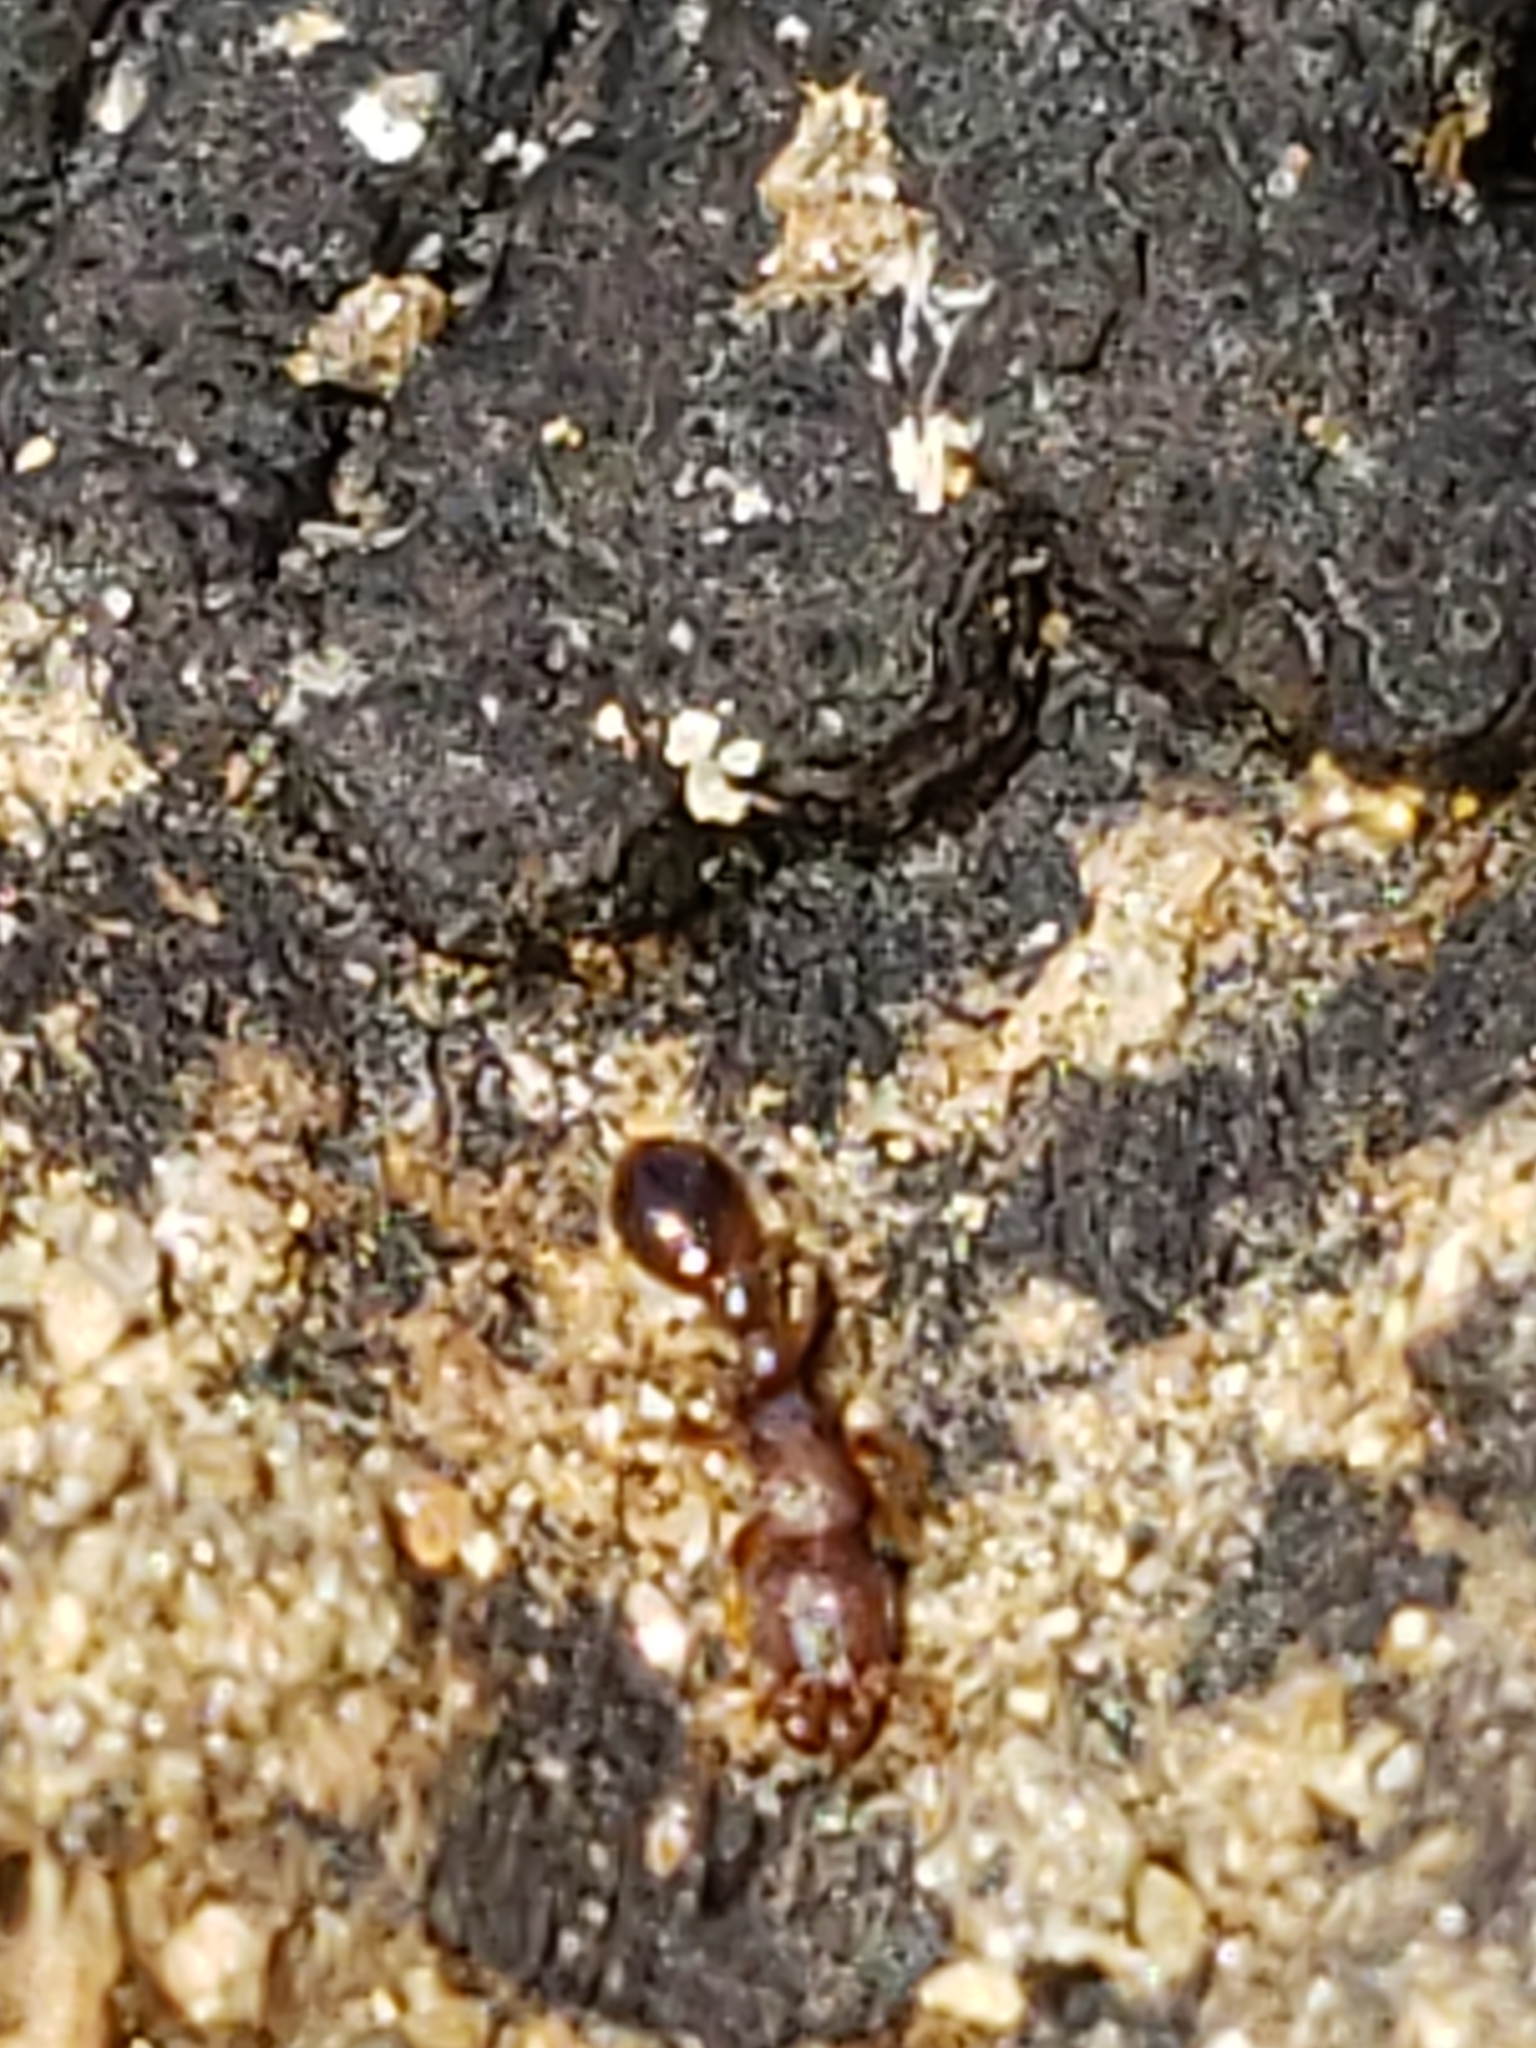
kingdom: Animalia
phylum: Arthropoda
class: Insecta
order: Hymenoptera
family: Formicidae
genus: Vollenhovia
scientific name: Vollenhovia emeryi
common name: Ant
